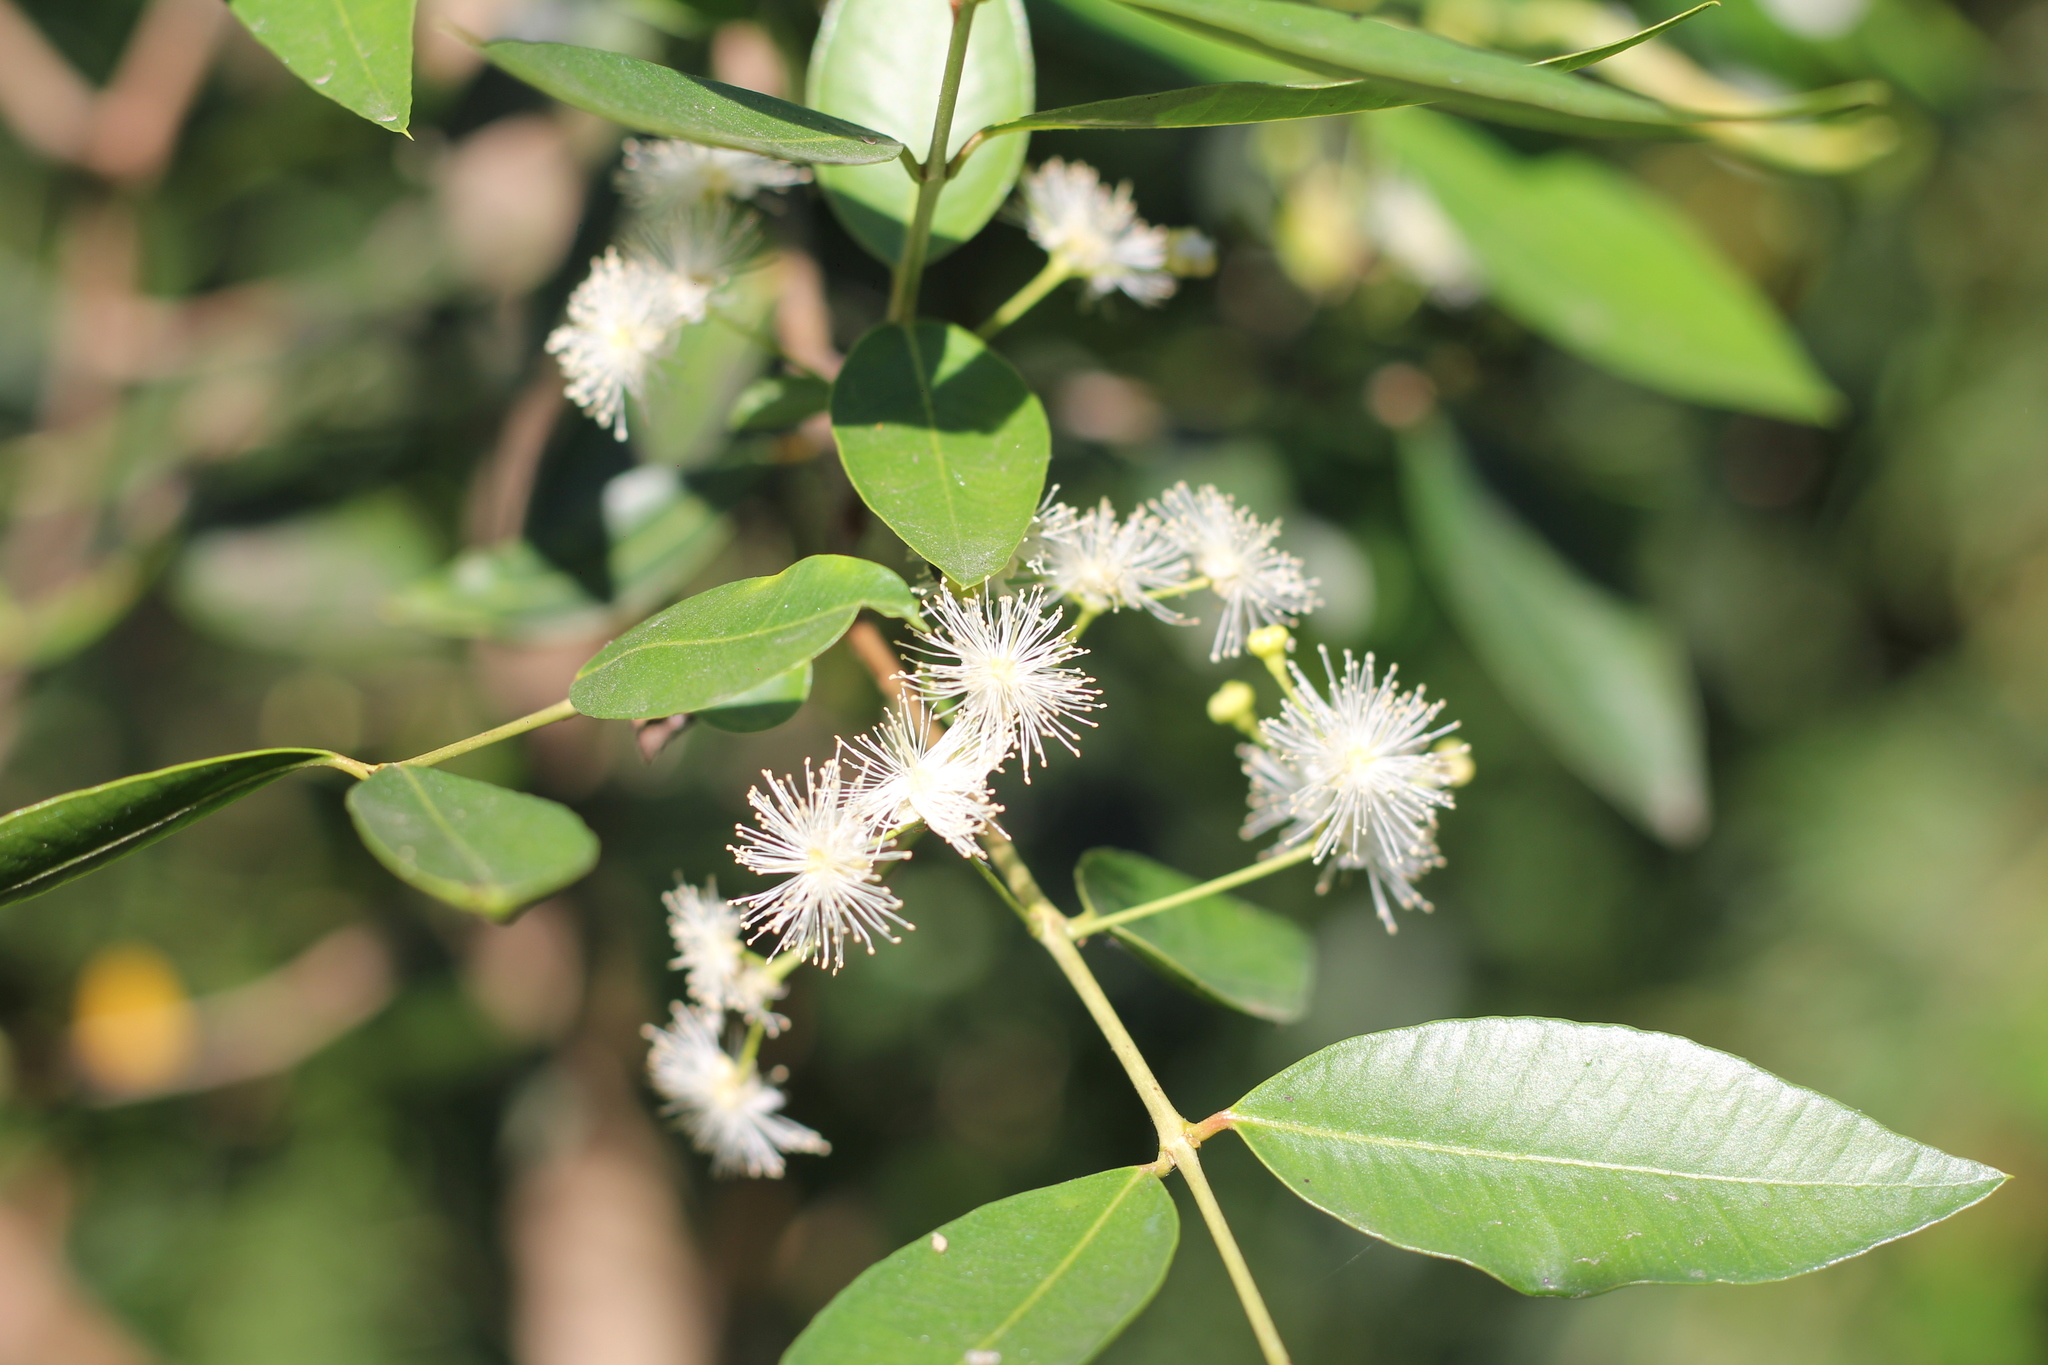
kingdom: Plantae
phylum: Tracheophyta
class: Magnoliopsida
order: Myrtales
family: Myrtaceae
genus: Blepharocalyx
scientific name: Blepharocalyx salicifolius
